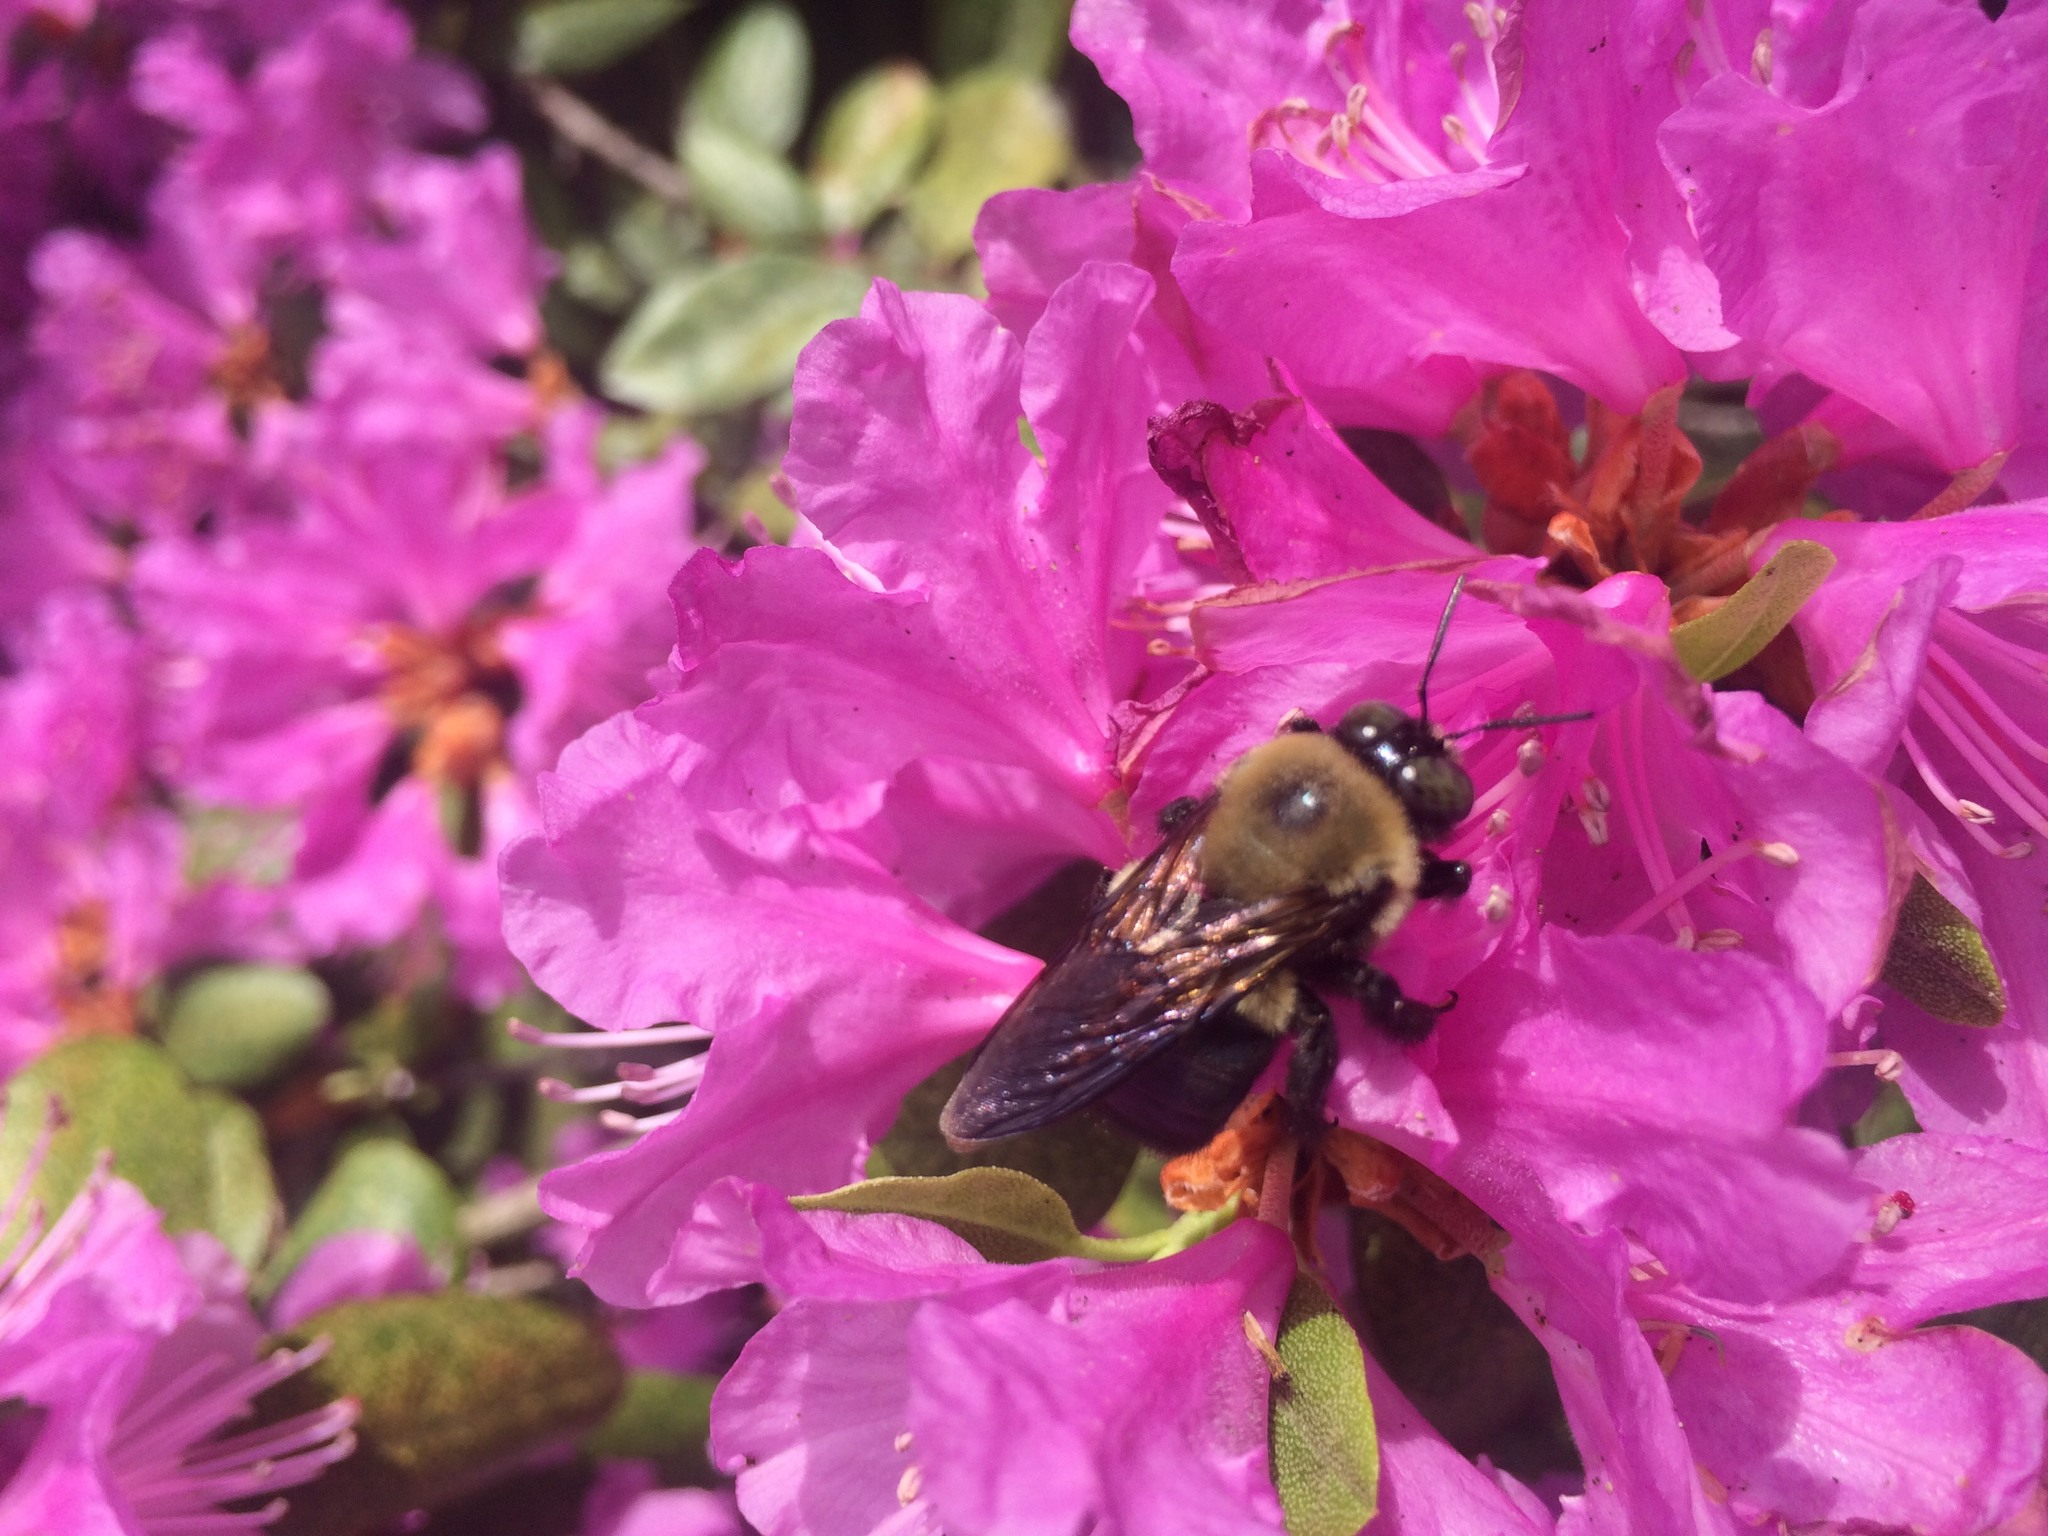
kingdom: Animalia
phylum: Arthropoda
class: Insecta
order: Hymenoptera
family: Apidae
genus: Xylocopa
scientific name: Xylocopa virginica
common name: Carpenter bee
